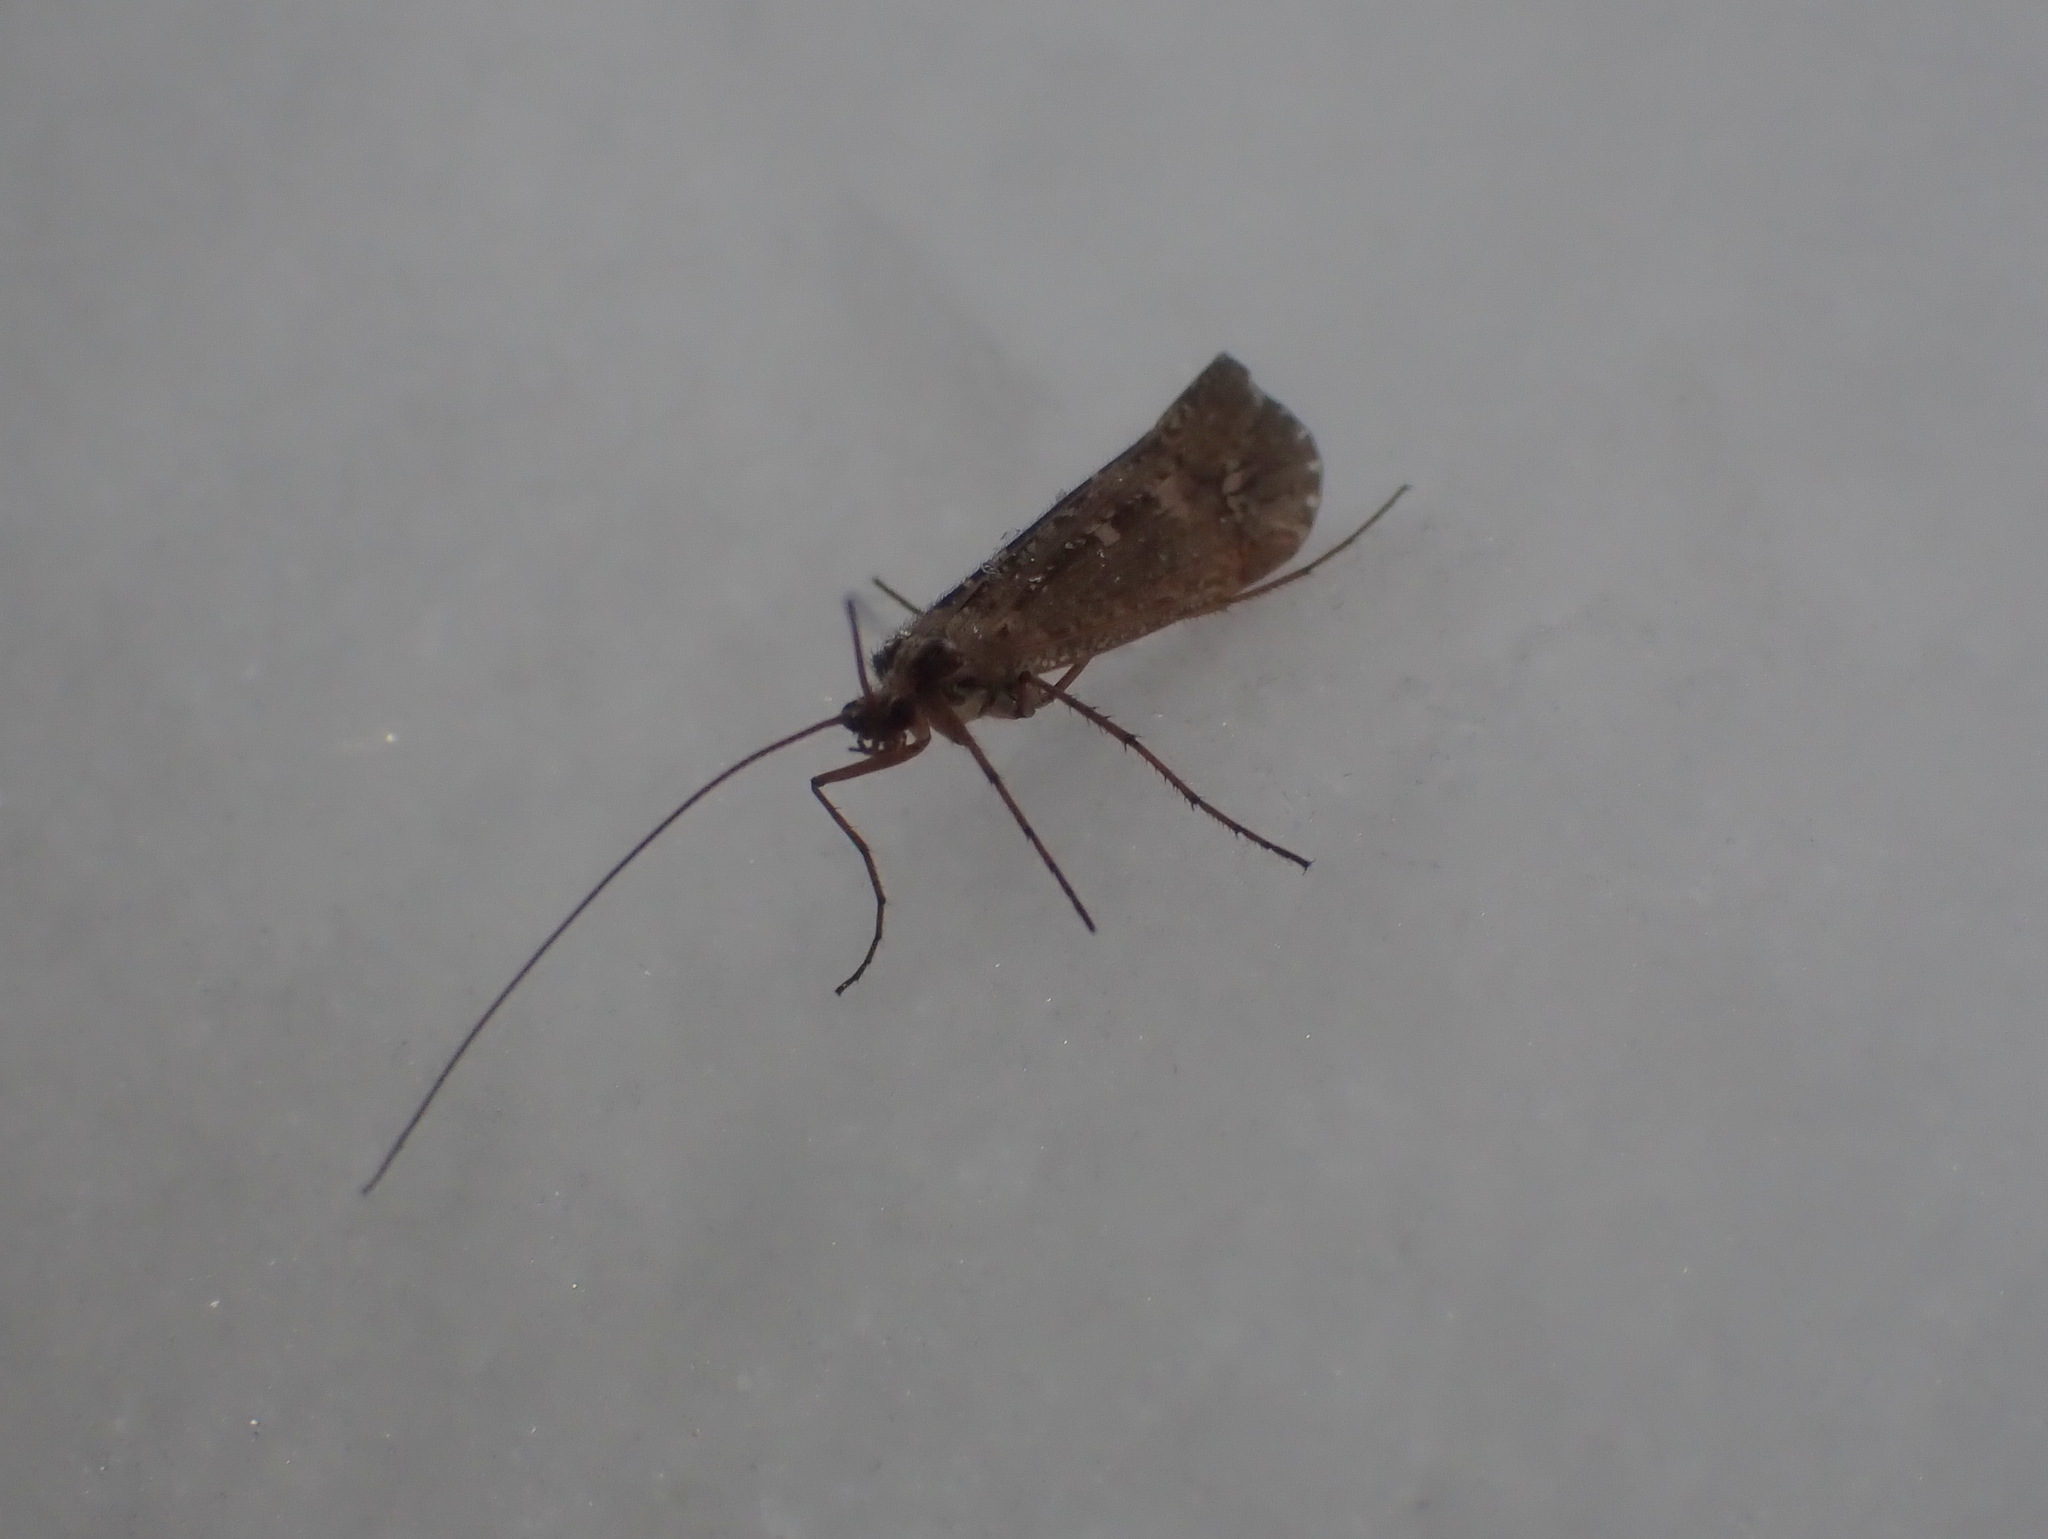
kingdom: Animalia
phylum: Arthropoda
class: Insecta
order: Trichoptera
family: Limnephilidae
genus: Glyphopsyche
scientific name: Glyphopsyche irrorata
